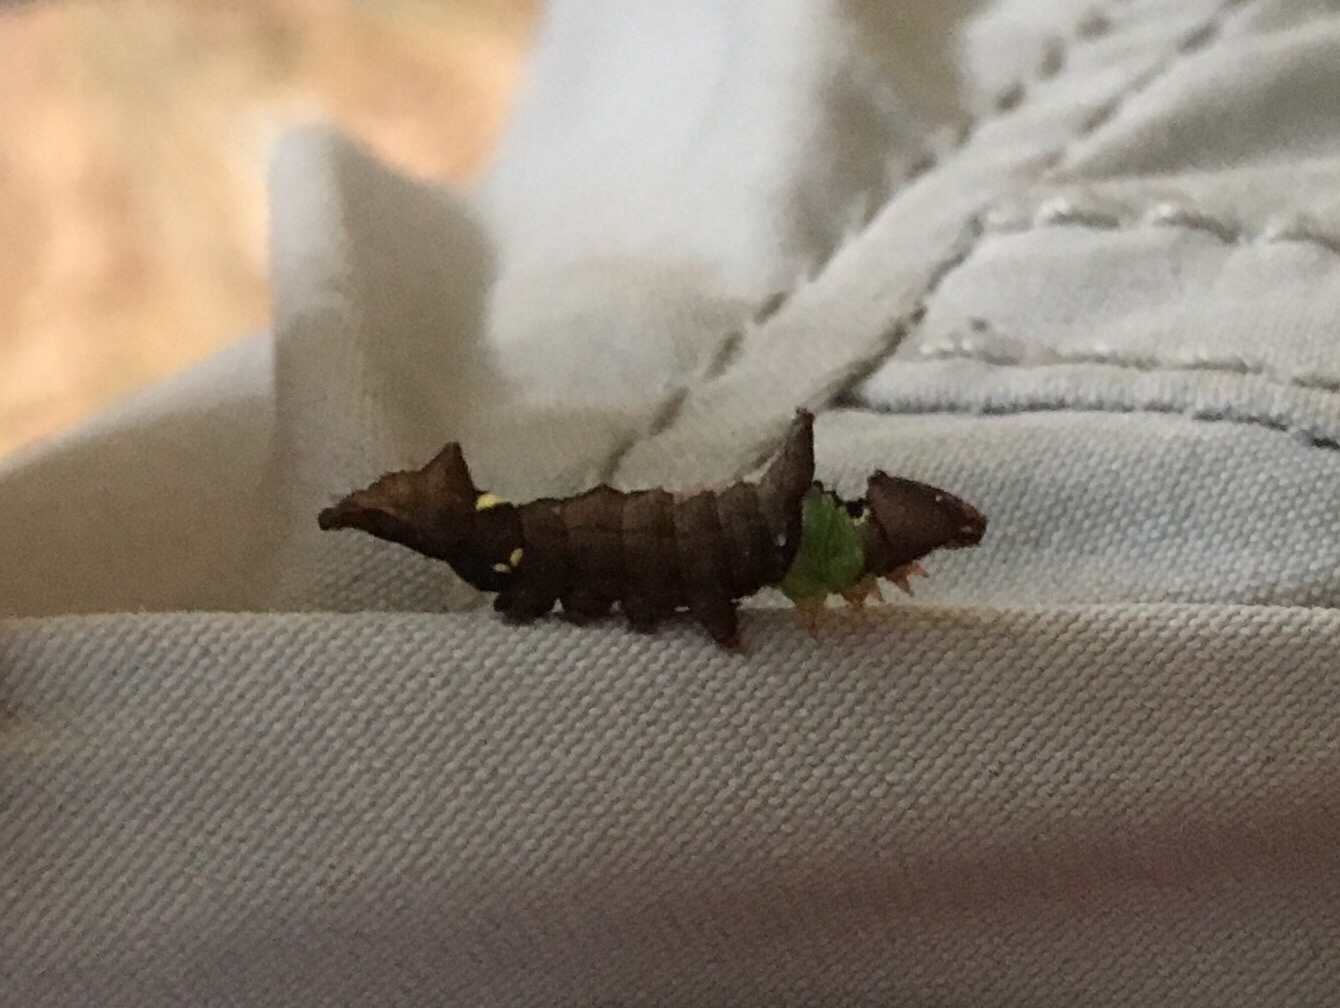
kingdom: Animalia
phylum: Arthropoda
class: Insecta
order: Lepidoptera
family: Notodontidae
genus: Schizura
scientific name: Schizura
